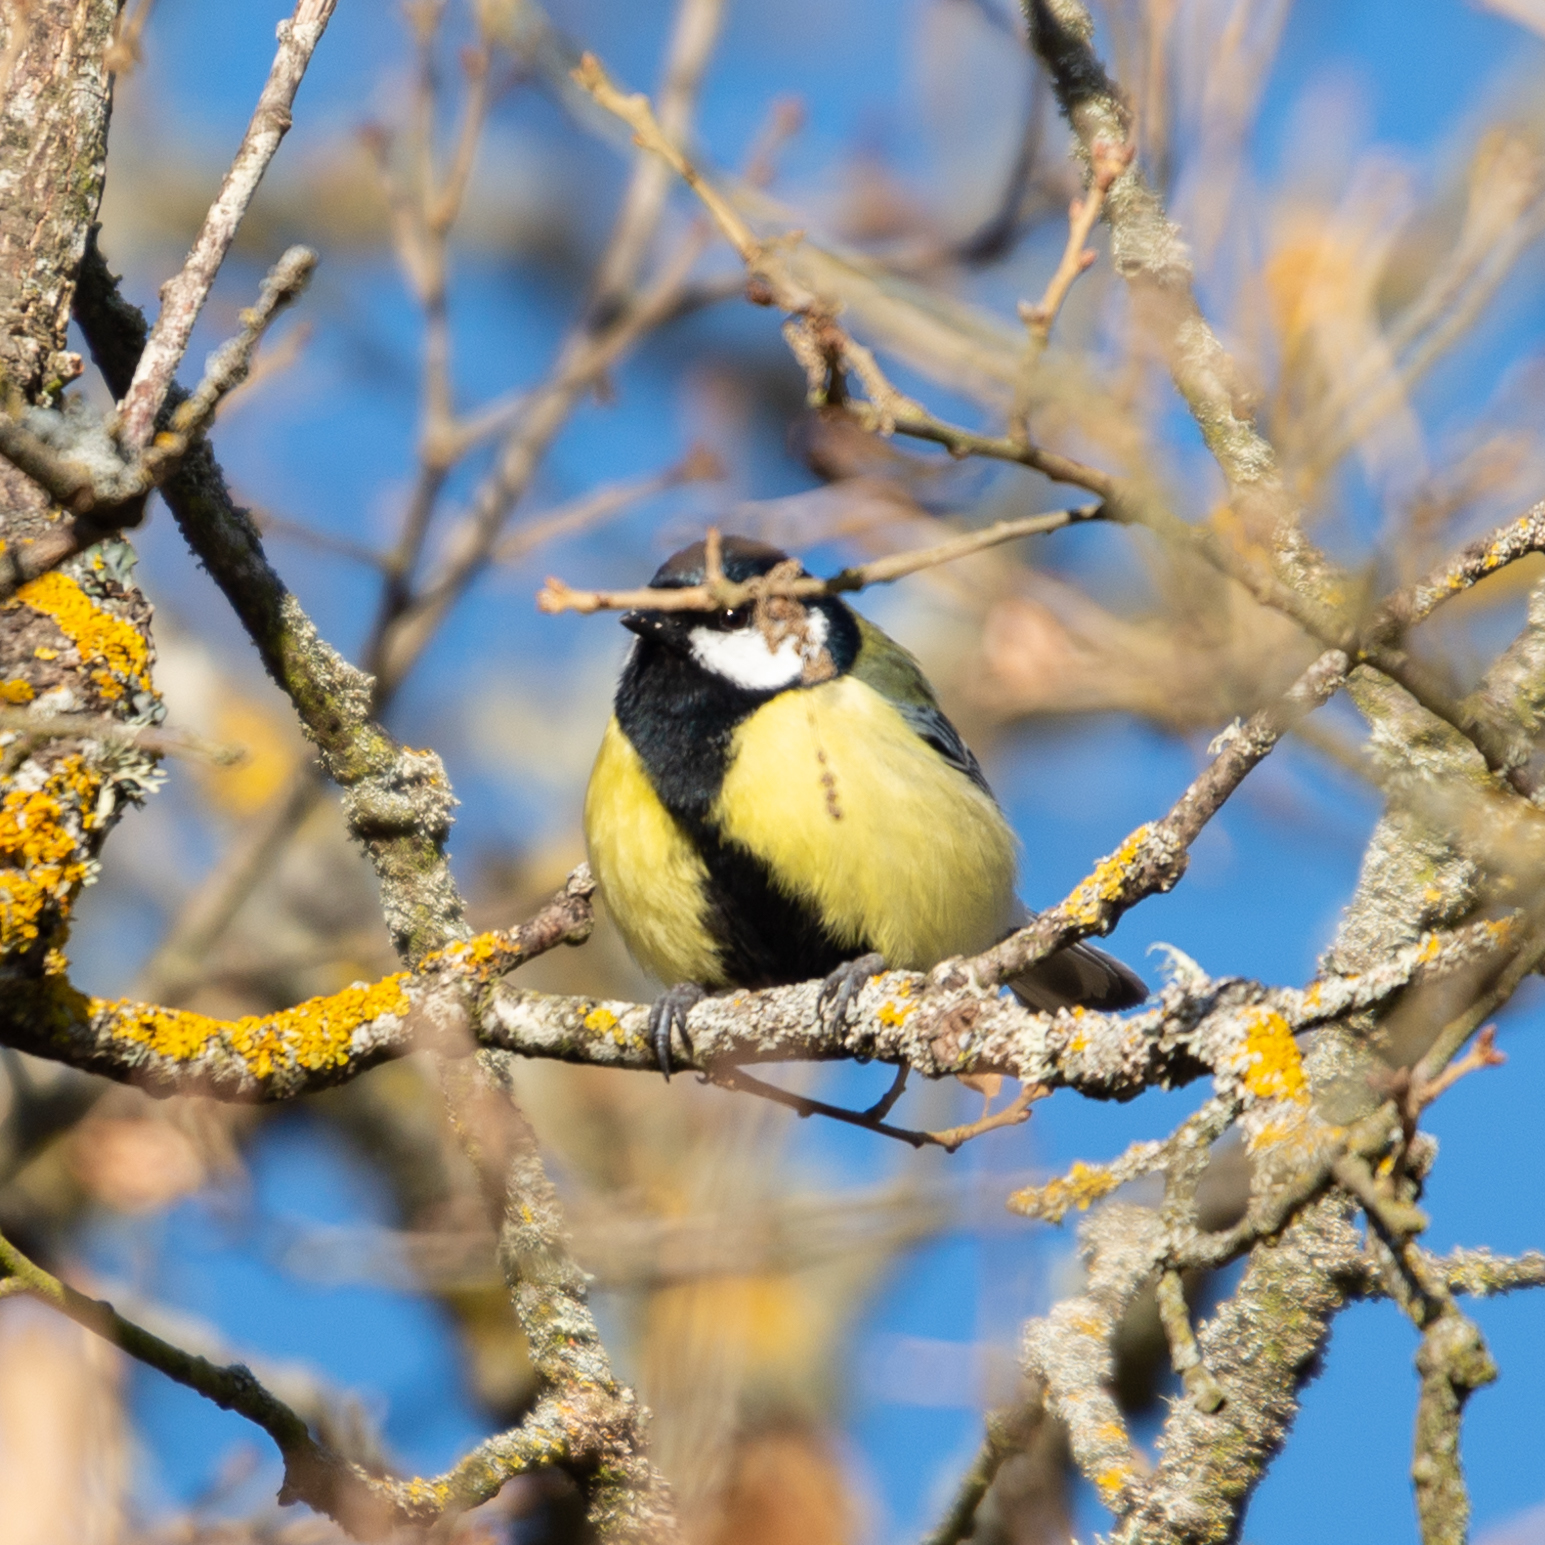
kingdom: Animalia
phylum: Chordata
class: Aves
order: Passeriformes
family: Paridae
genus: Parus
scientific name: Parus major
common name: Great tit
